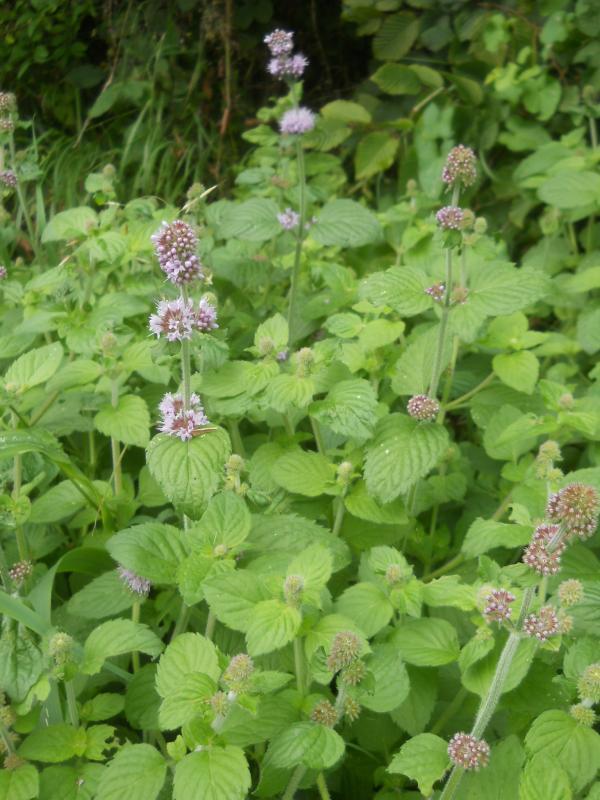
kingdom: Plantae
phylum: Tracheophyta
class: Magnoliopsida
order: Lamiales
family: Lamiaceae
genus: Mentha
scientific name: Mentha aquatica
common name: Water mint
